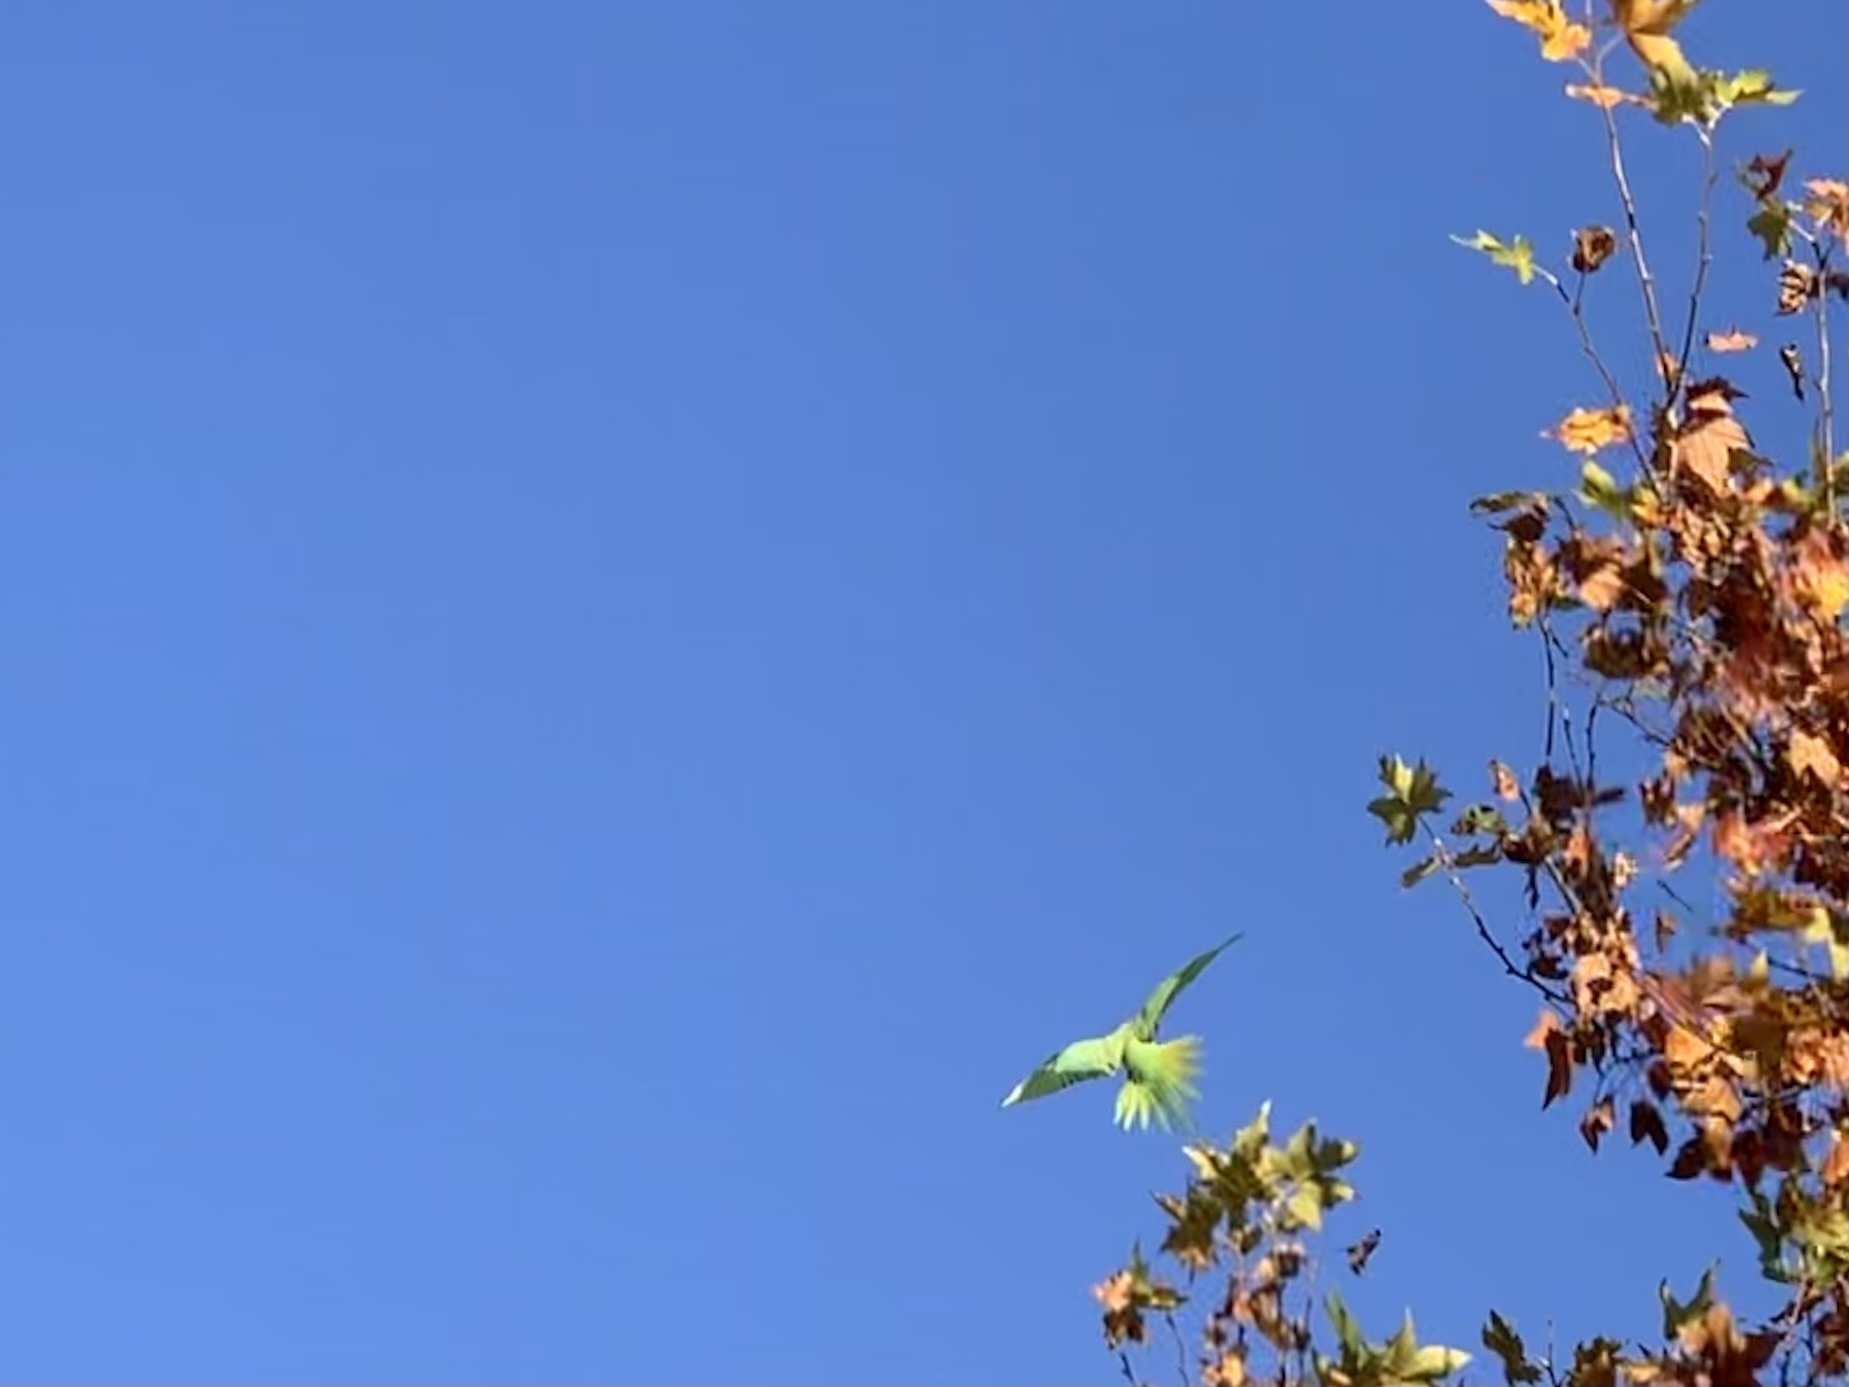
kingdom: Animalia
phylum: Chordata
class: Aves
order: Psittaciformes
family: Psittacidae
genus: Psittacula
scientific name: Psittacula krameri
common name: Rose-ringed parakeet
